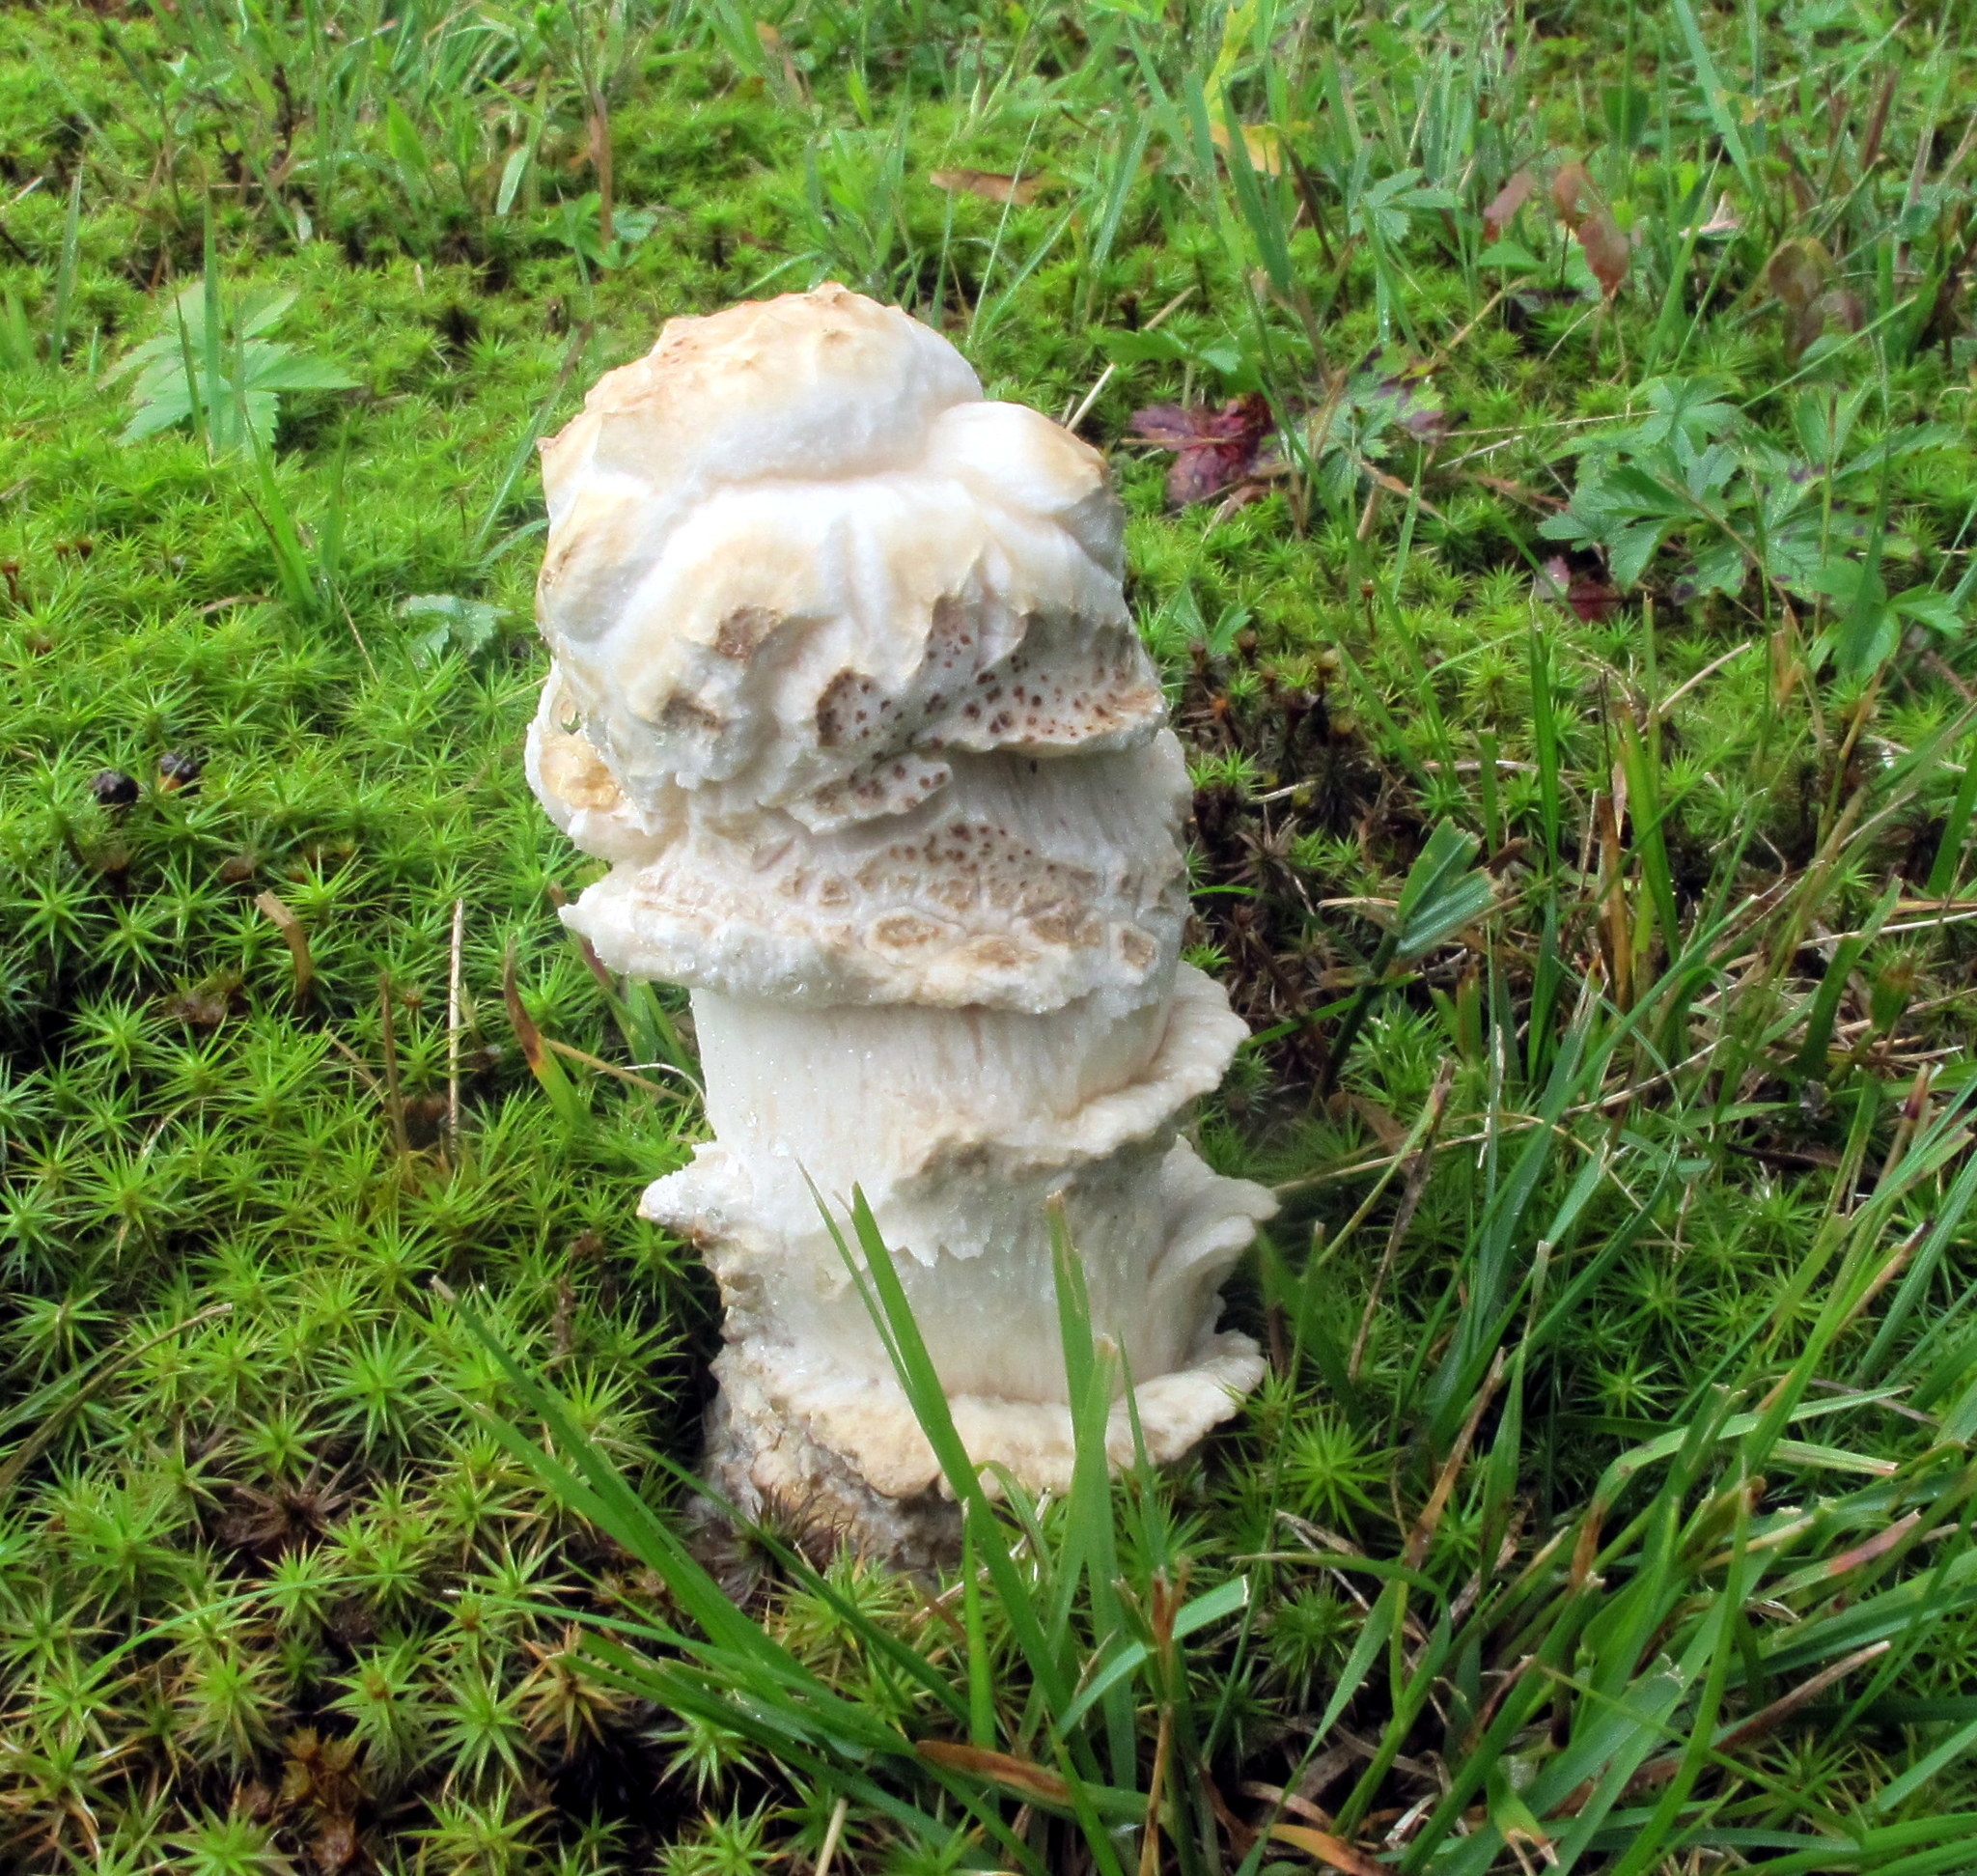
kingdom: Fungi
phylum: Ascomycota
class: Sordariomycetes
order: Hypocreales
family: Hypocreaceae
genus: Hypomyces
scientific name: Hypomyces hyalinus
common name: Amanita mold
